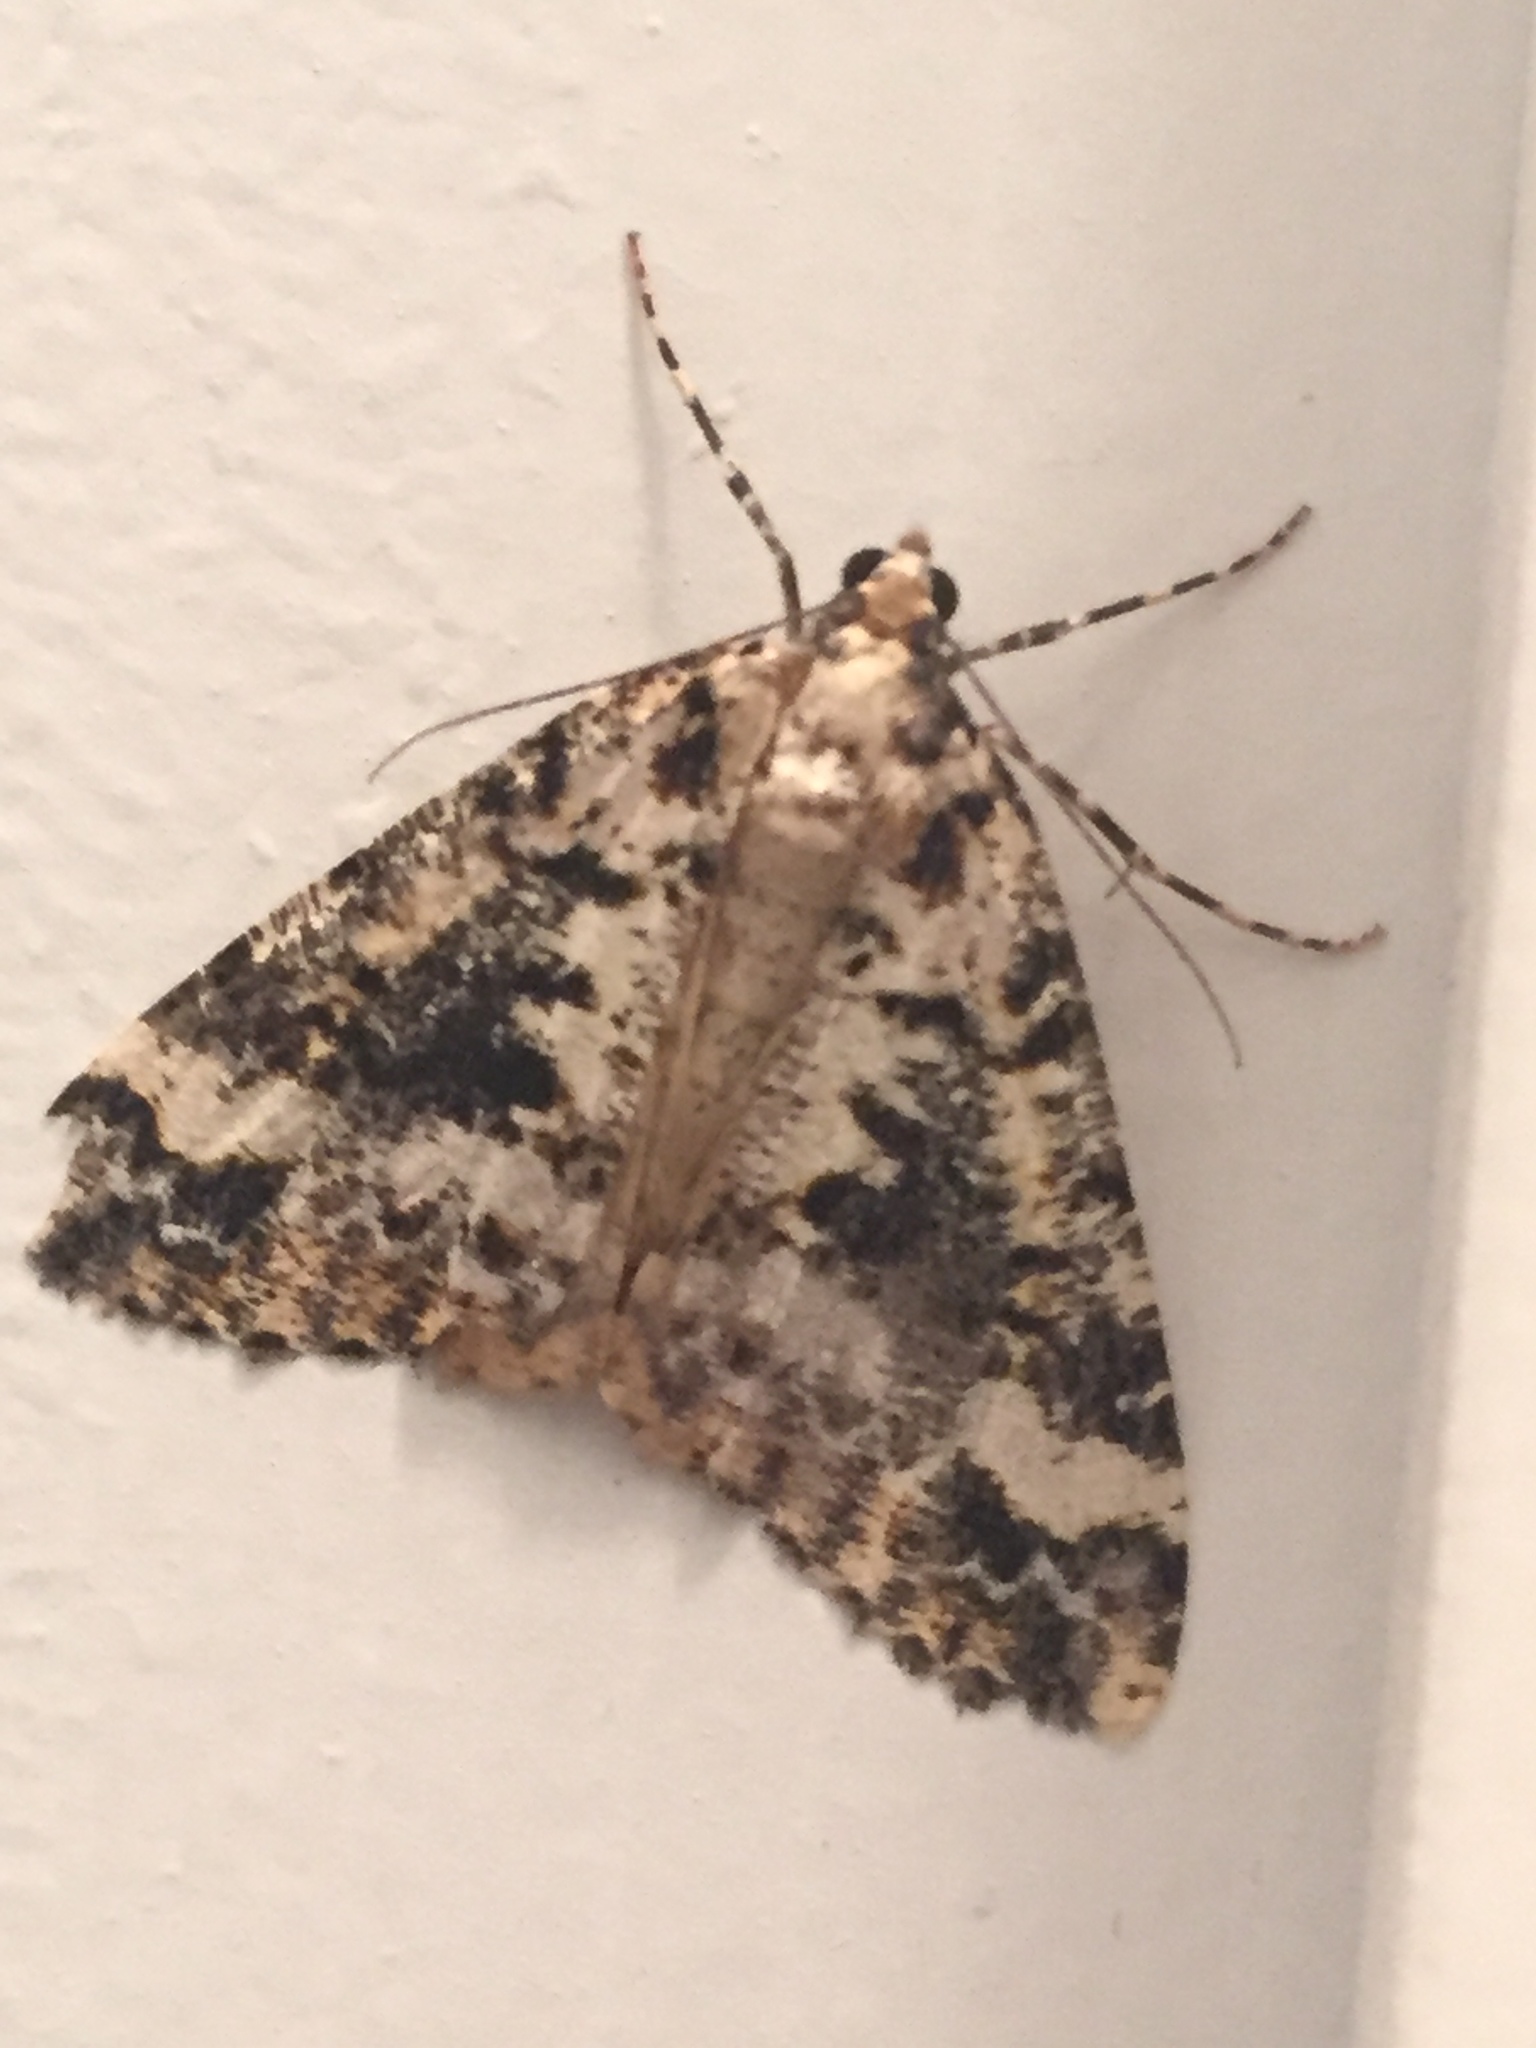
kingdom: Animalia
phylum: Arthropoda
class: Insecta
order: Lepidoptera
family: Geometridae
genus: Pseudocoremia
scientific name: Pseudocoremia leucelaea
